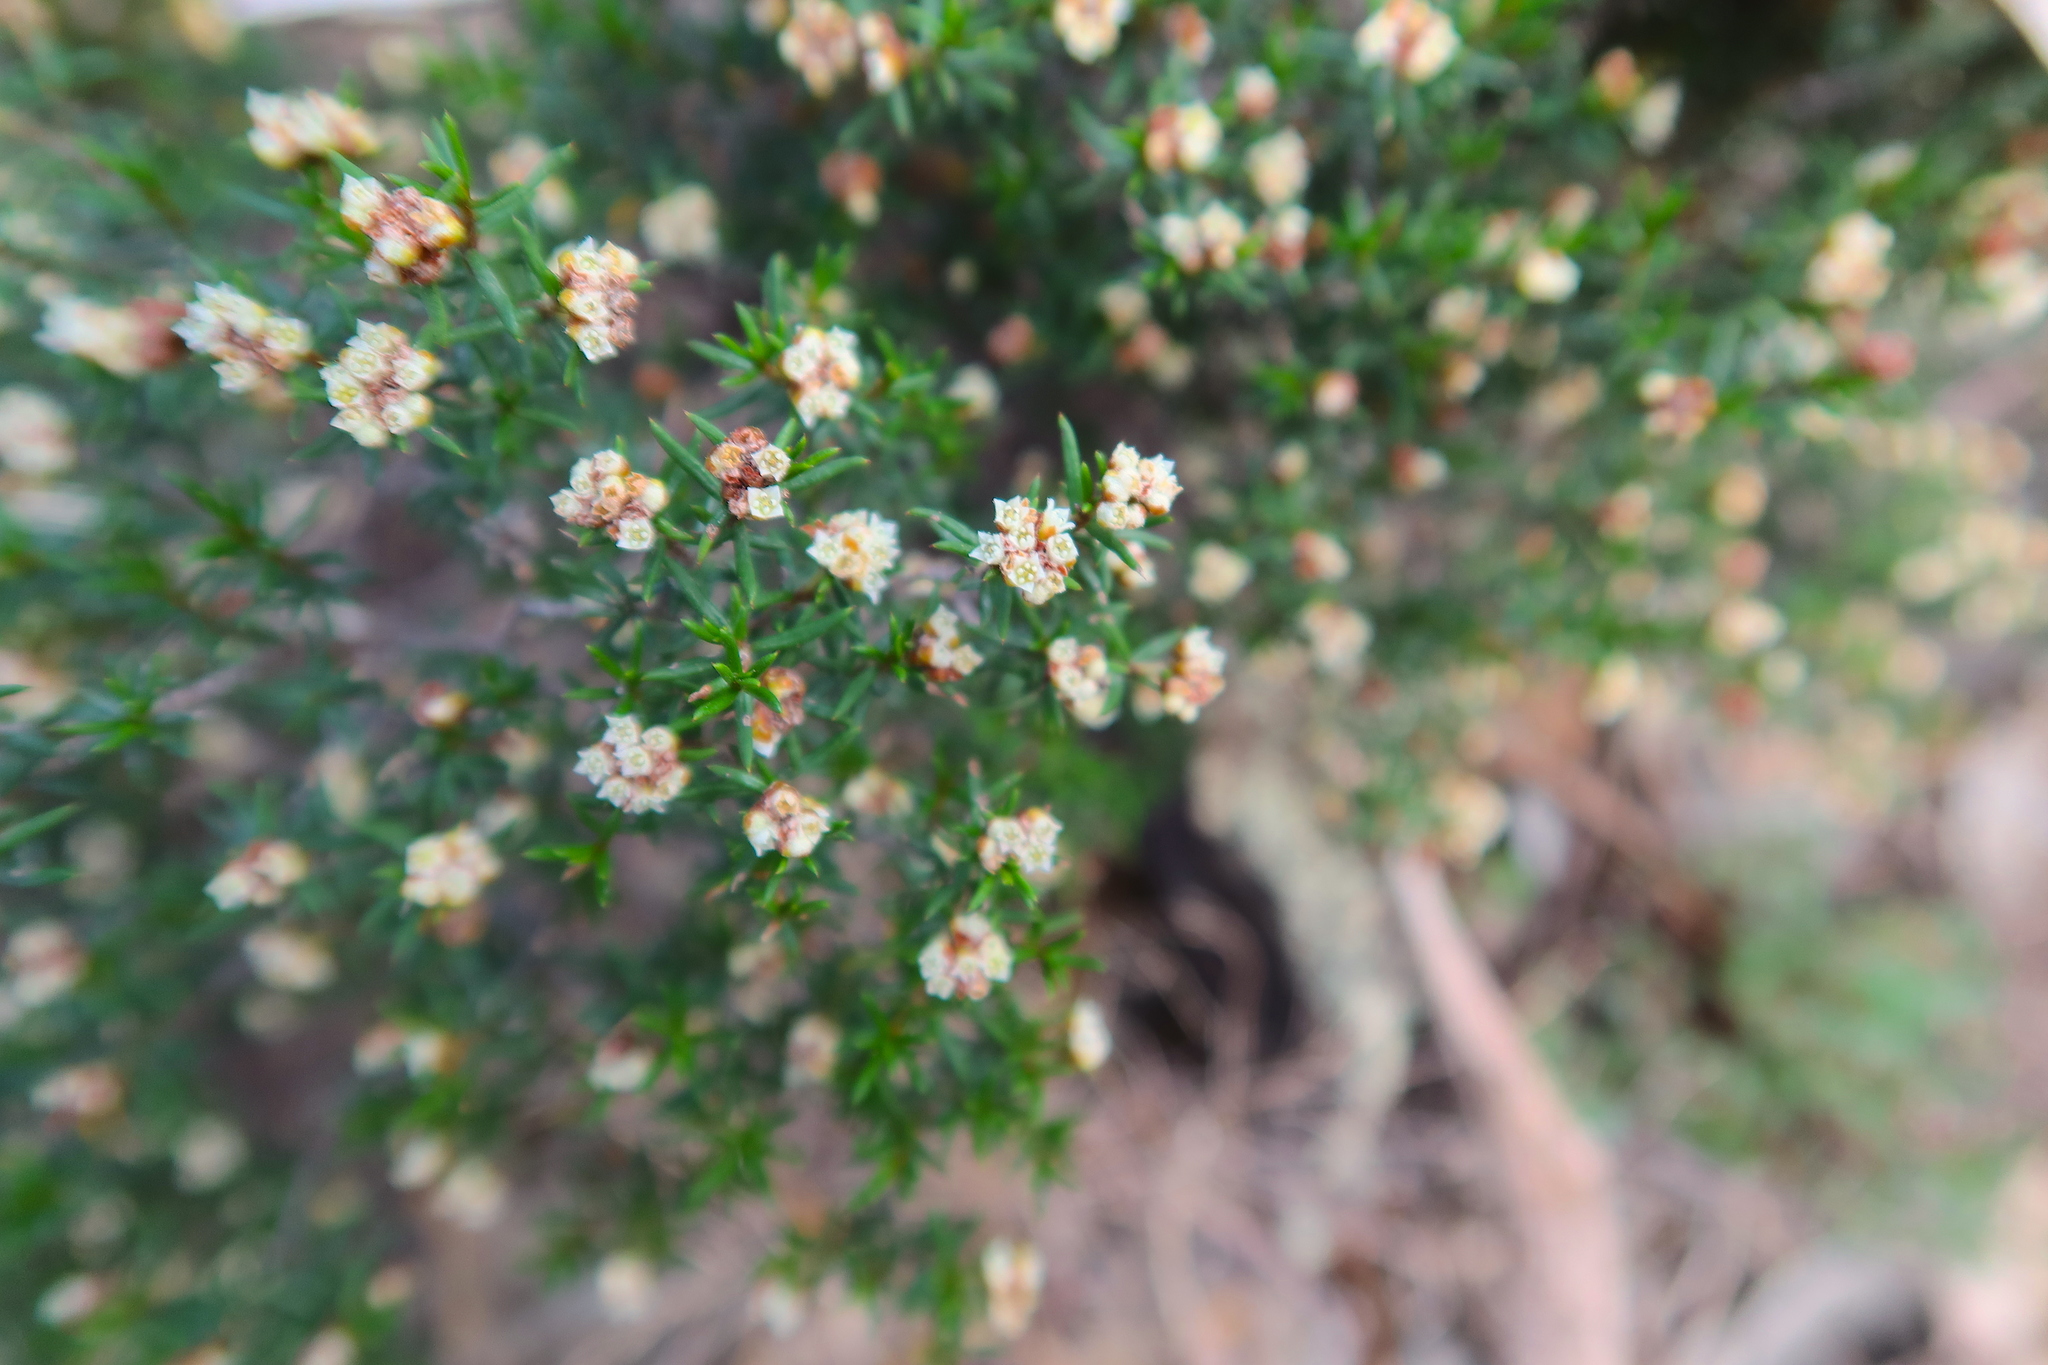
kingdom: Plantae
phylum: Tracheophyta
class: Magnoliopsida
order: Rosales
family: Rhamnaceae
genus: Spyridium
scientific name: Spyridium eriocephalum
